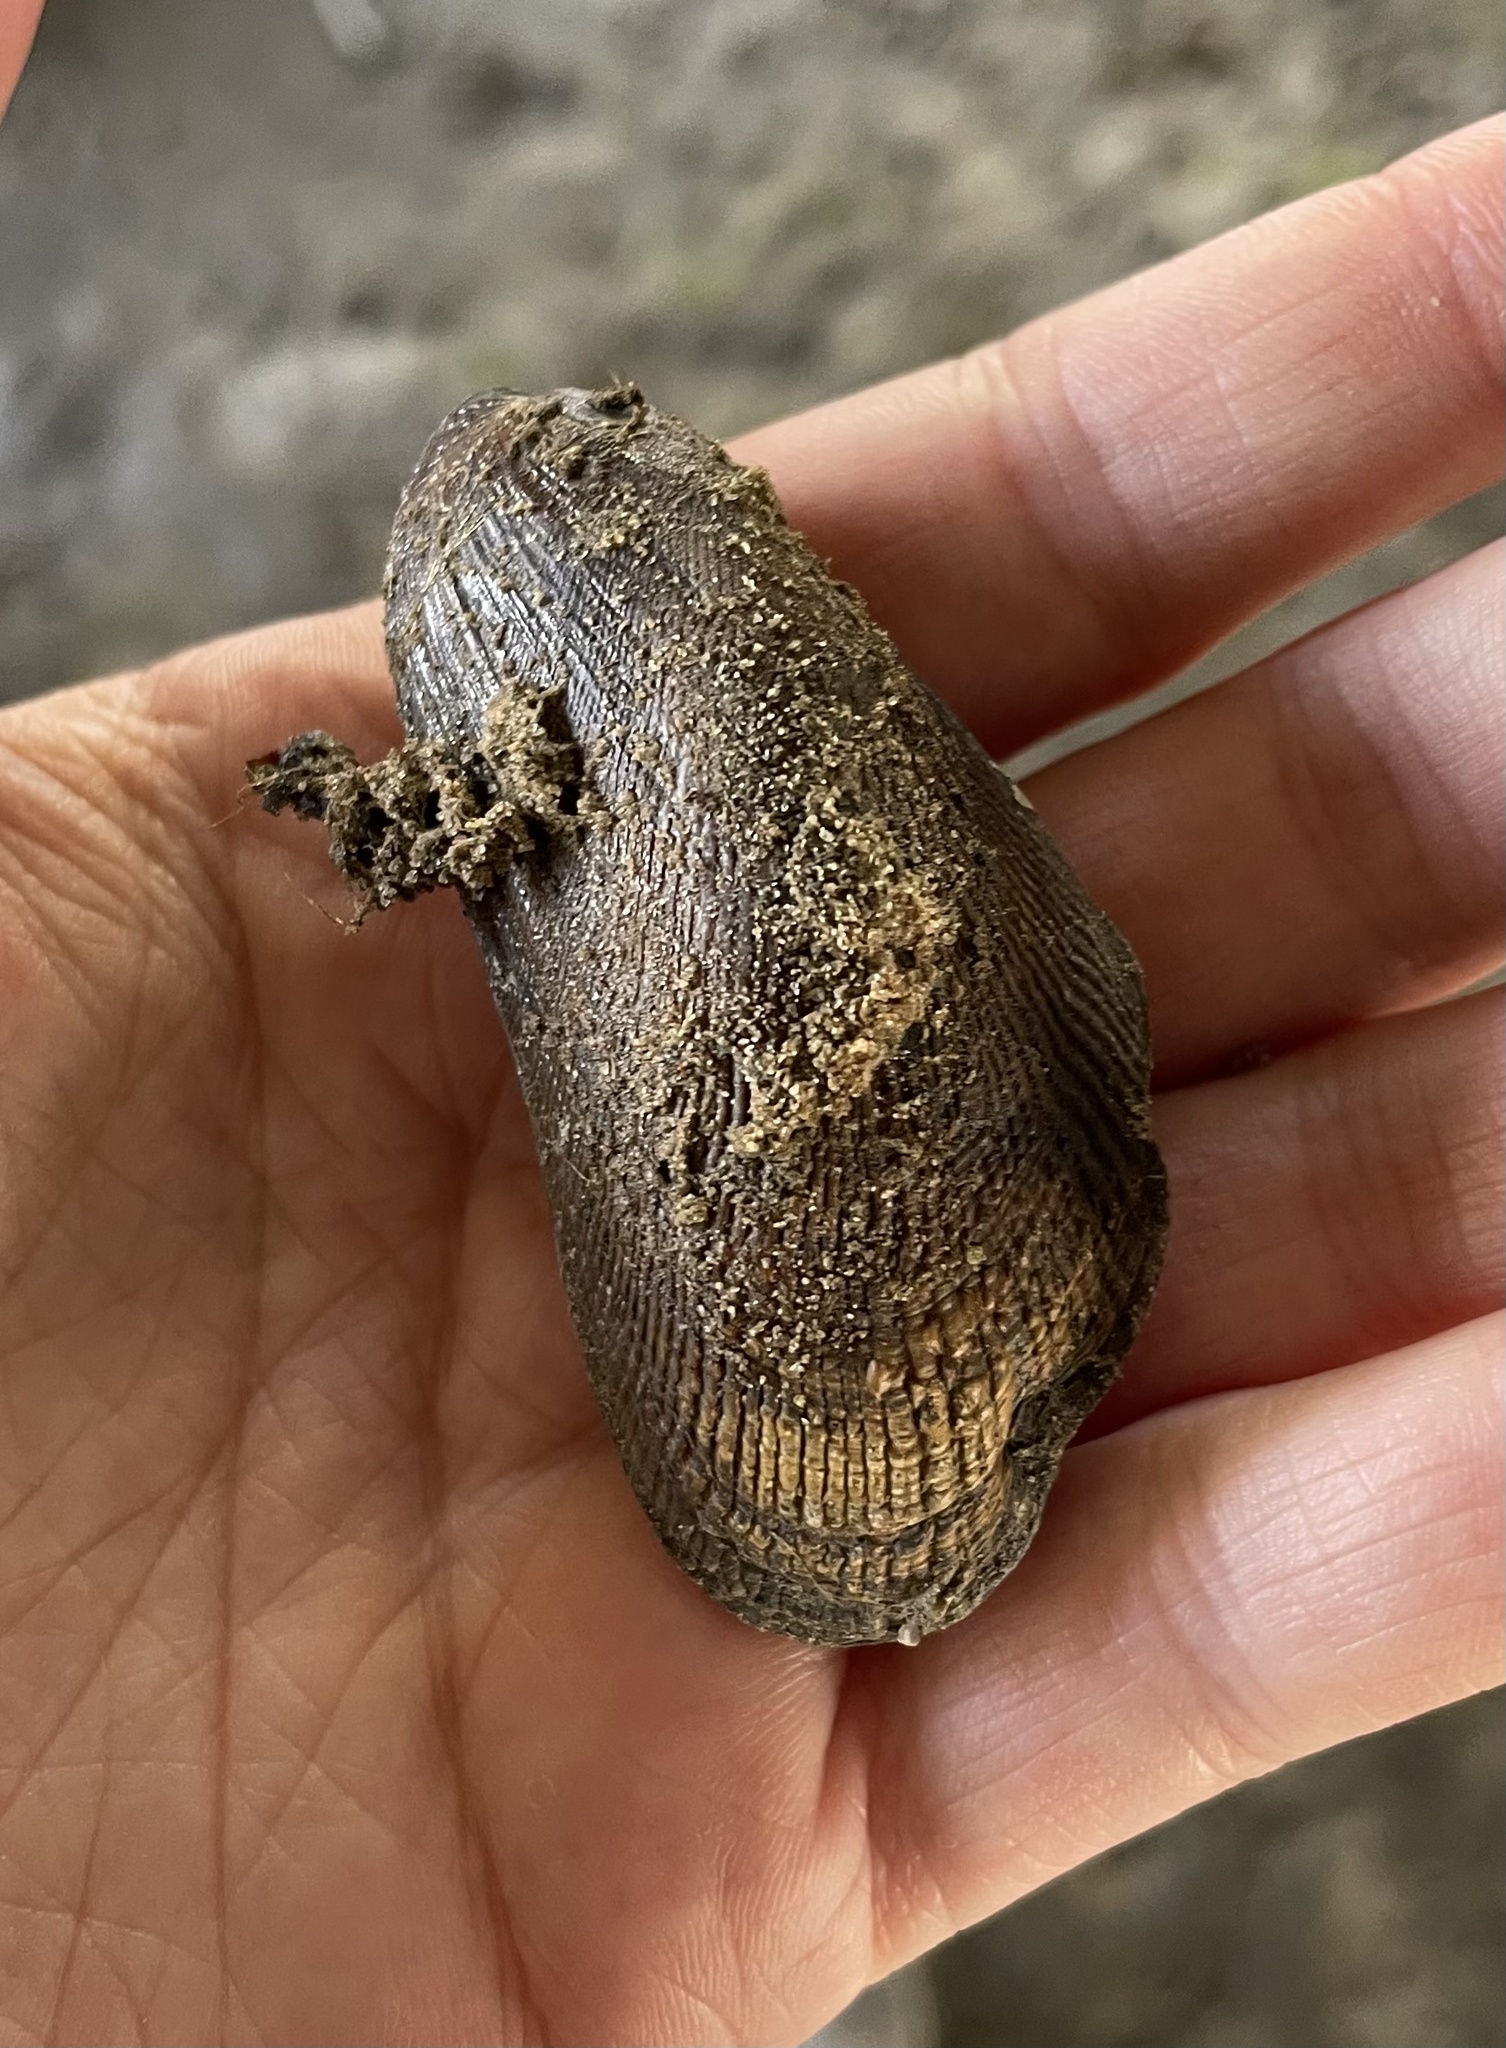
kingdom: Animalia
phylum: Mollusca
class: Bivalvia
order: Mytilida
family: Mytilidae
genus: Geukensia
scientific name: Geukensia demissa
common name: Ribbed mussel
